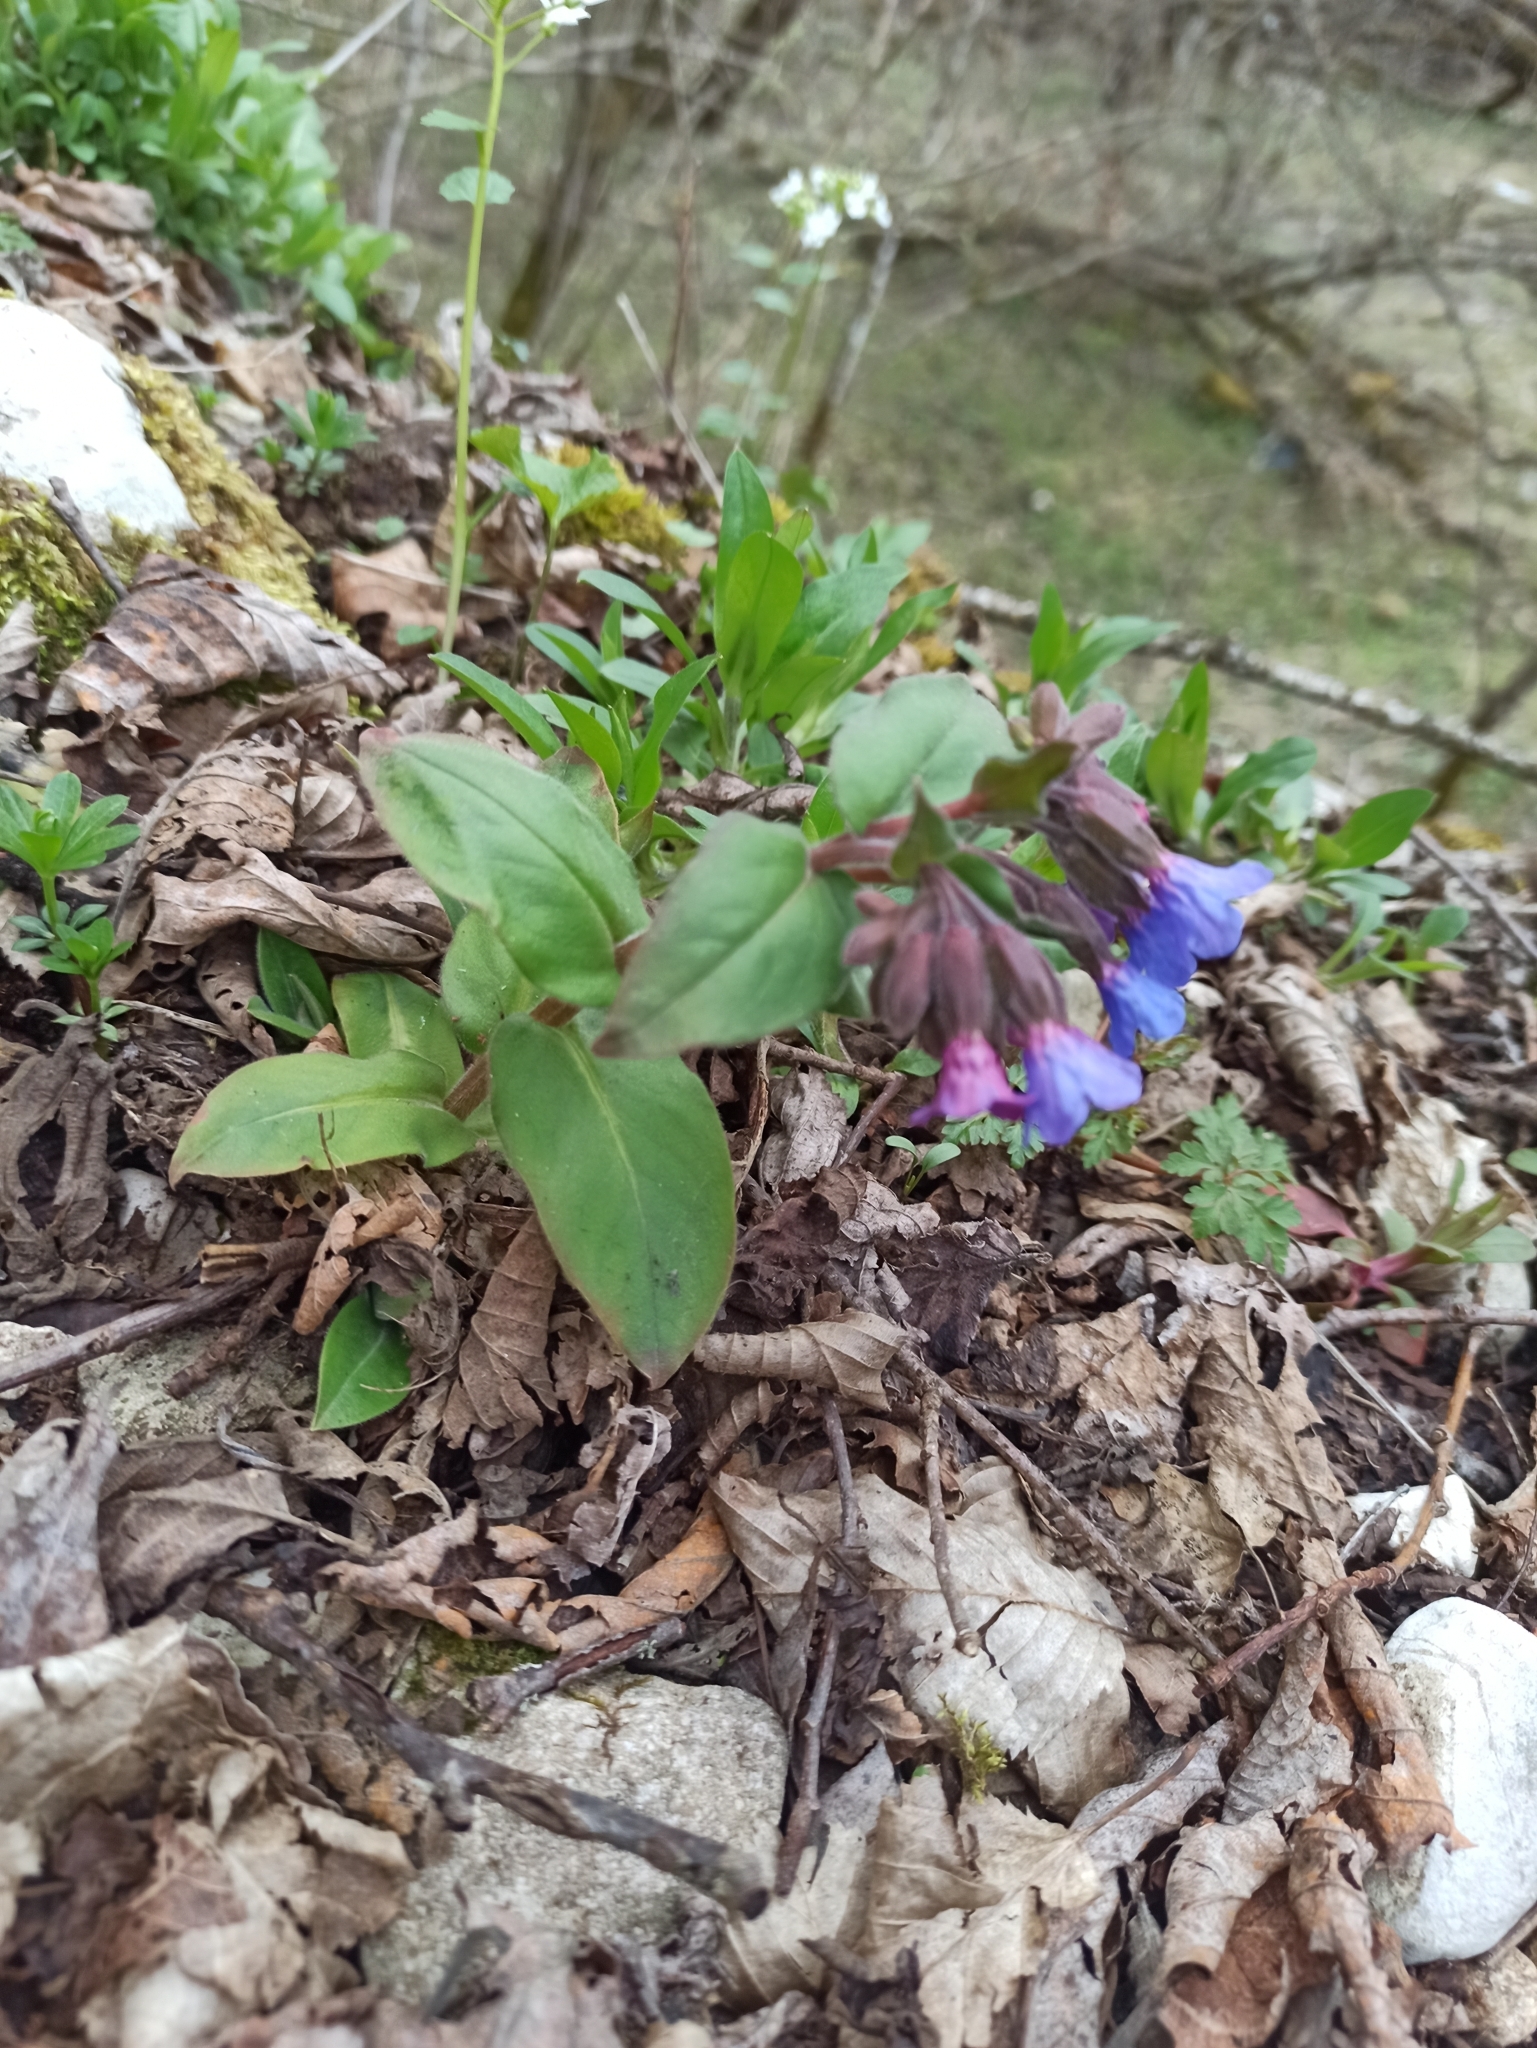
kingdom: Plantae
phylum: Tracheophyta
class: Magnoliopsida
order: Boraginales
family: Boraginaceae
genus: Pulmonaria
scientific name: Pulmonaria mollis
